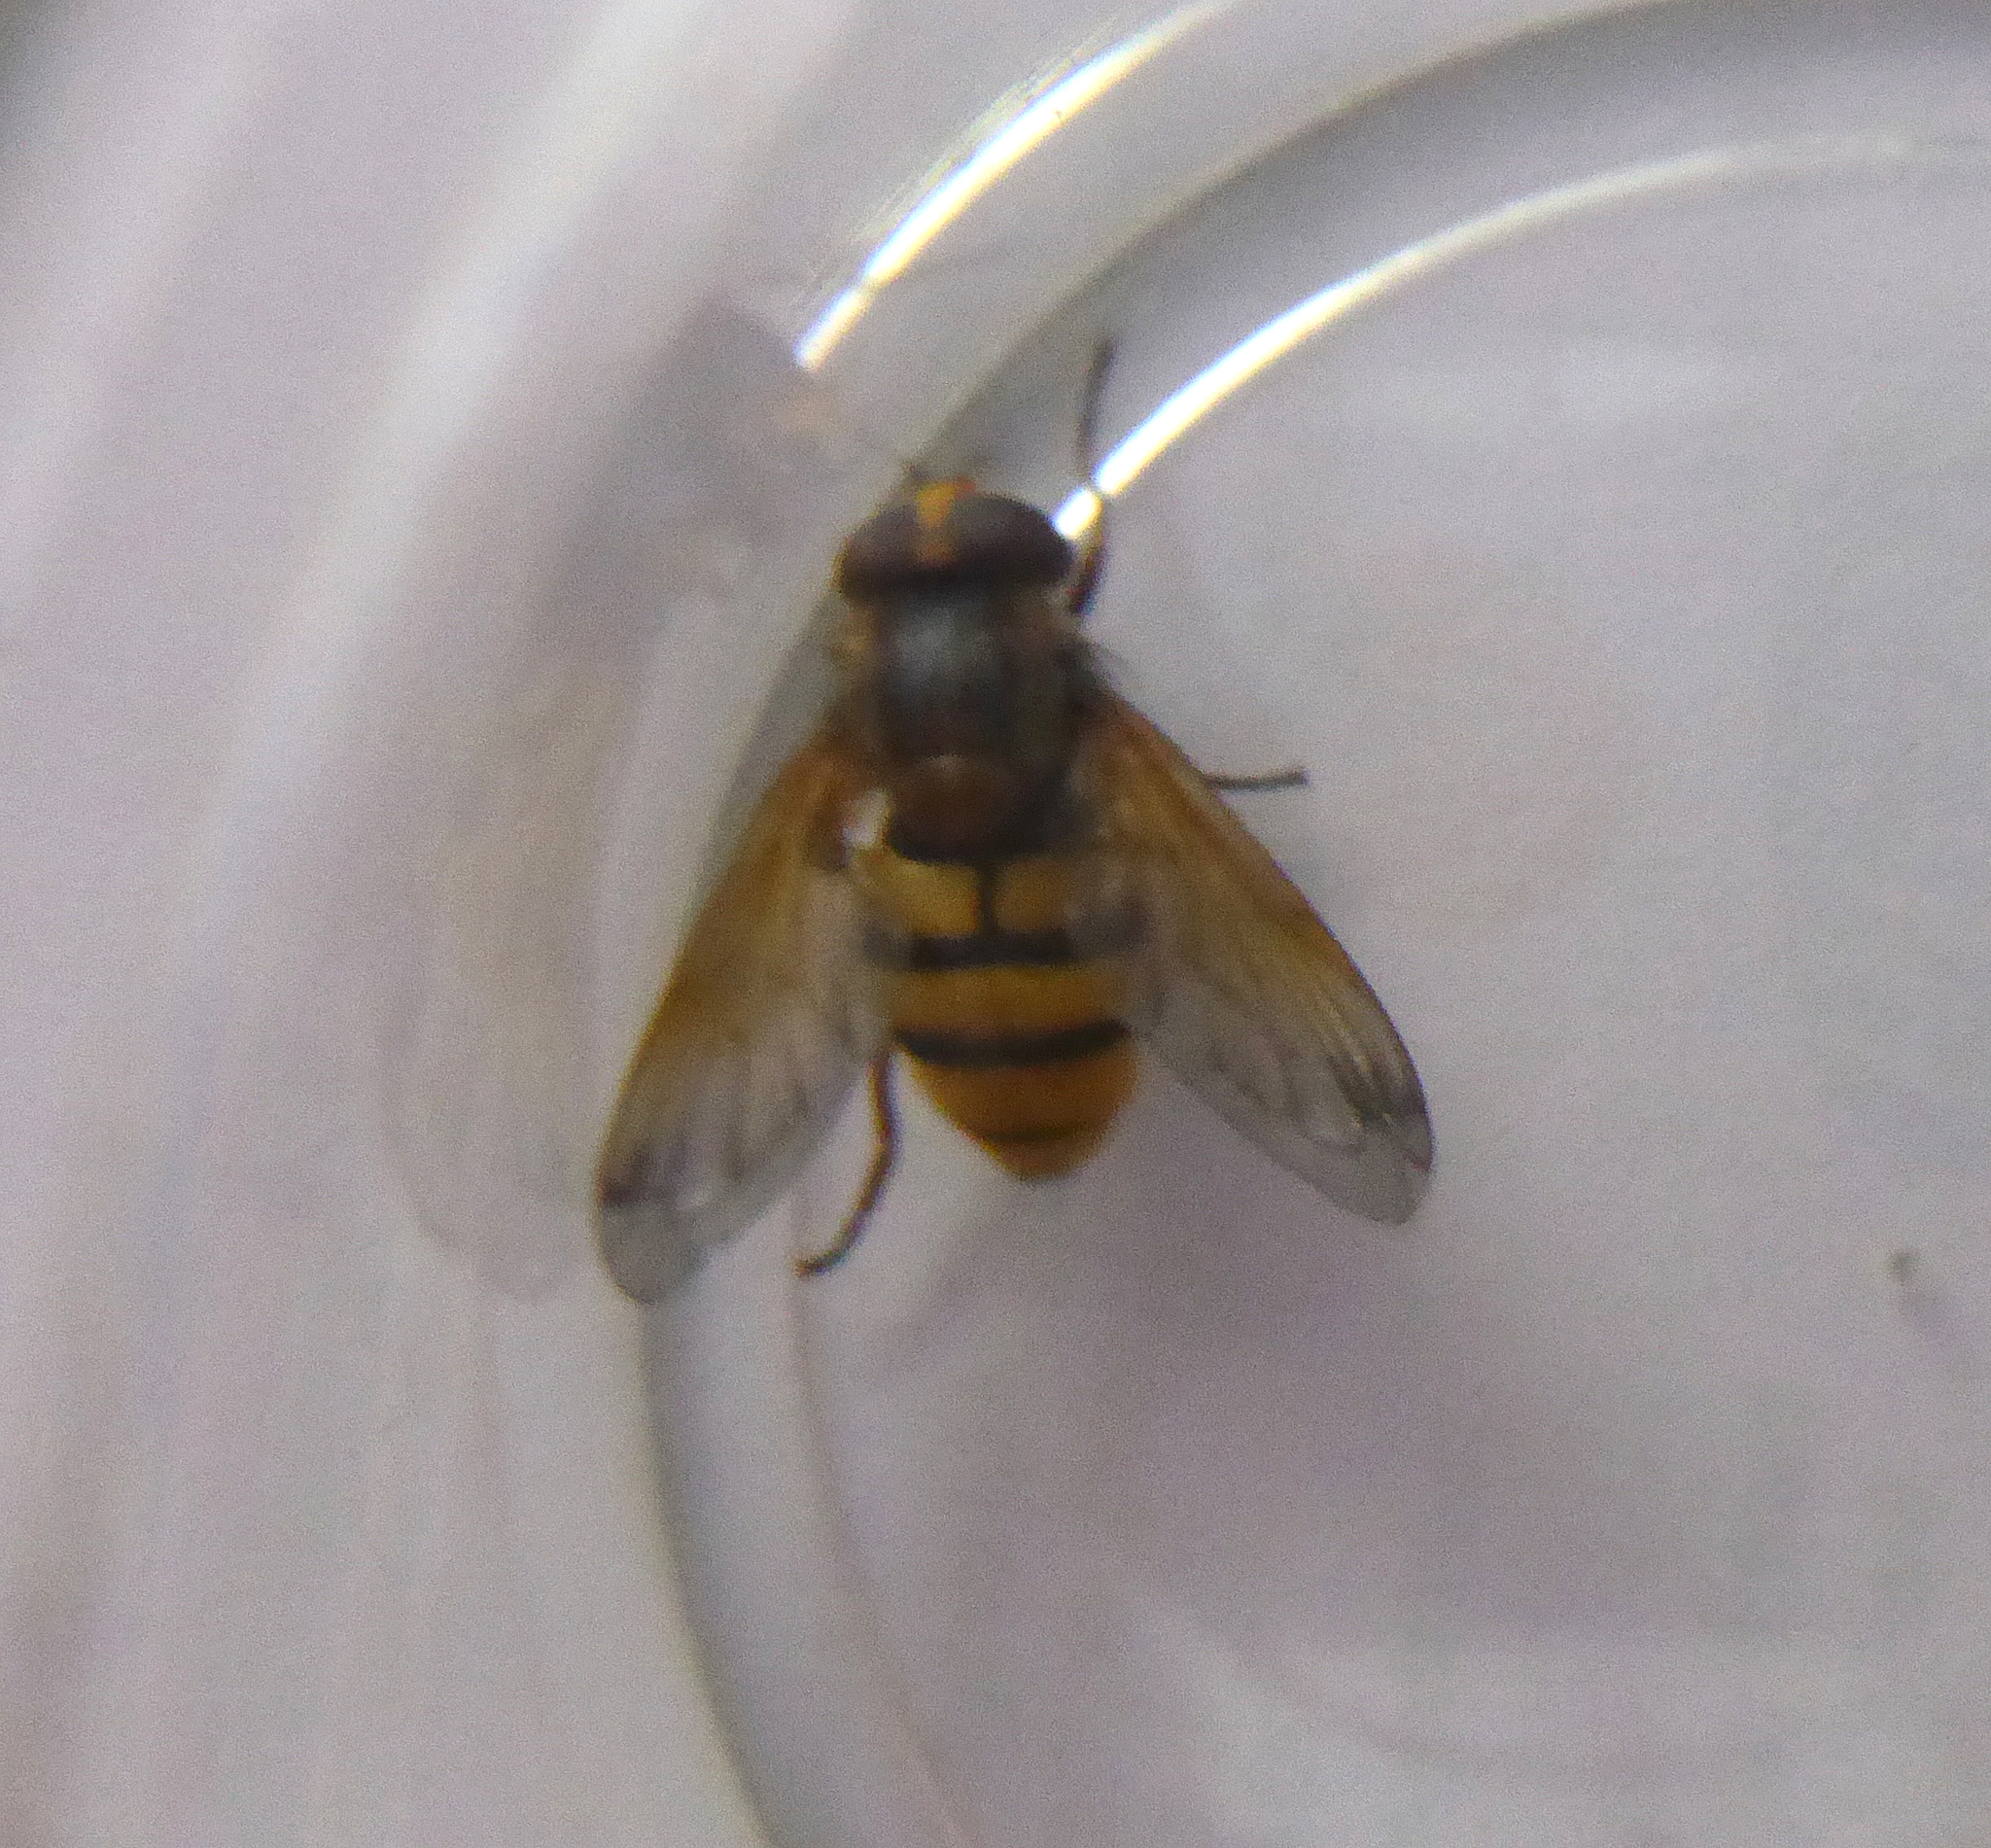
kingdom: Animalia
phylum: Arthropoda
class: Insecta
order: Diptera
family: Syrphidae
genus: Volucella
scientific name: Volucella inanis
